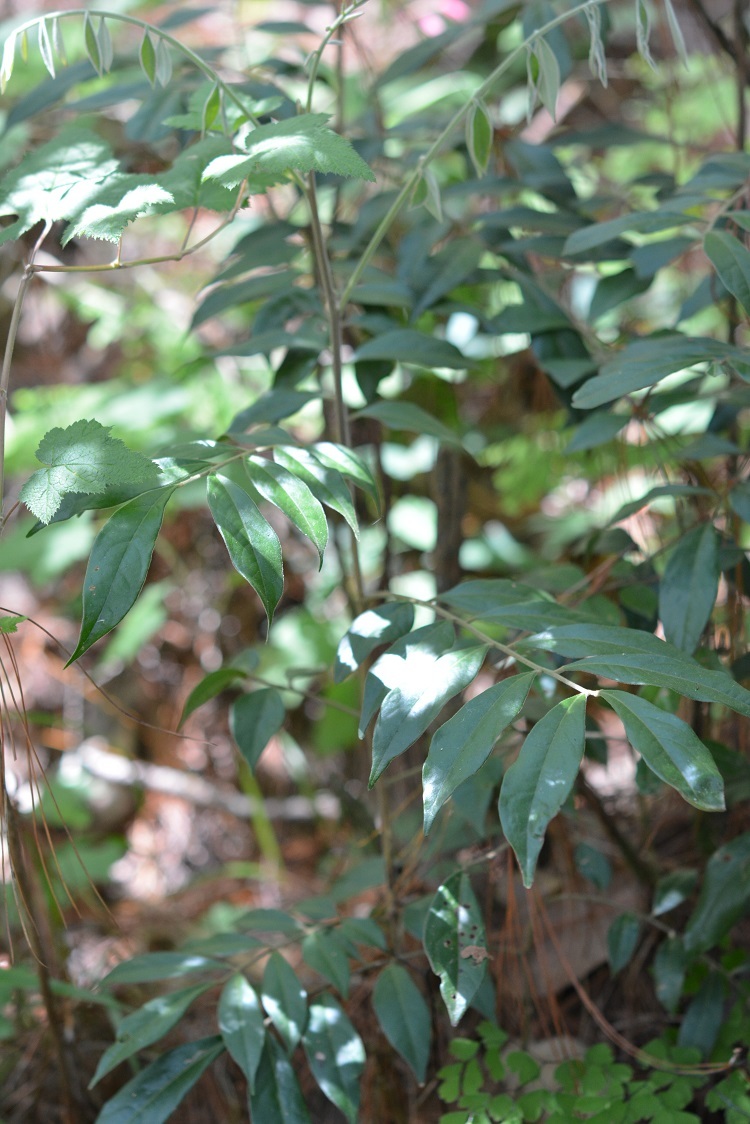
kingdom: Plantae
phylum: Tracheophyta
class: Magnoliopsida
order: Picramniales
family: Picramniaceae
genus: Picramnia
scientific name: Picramnia deflexa
